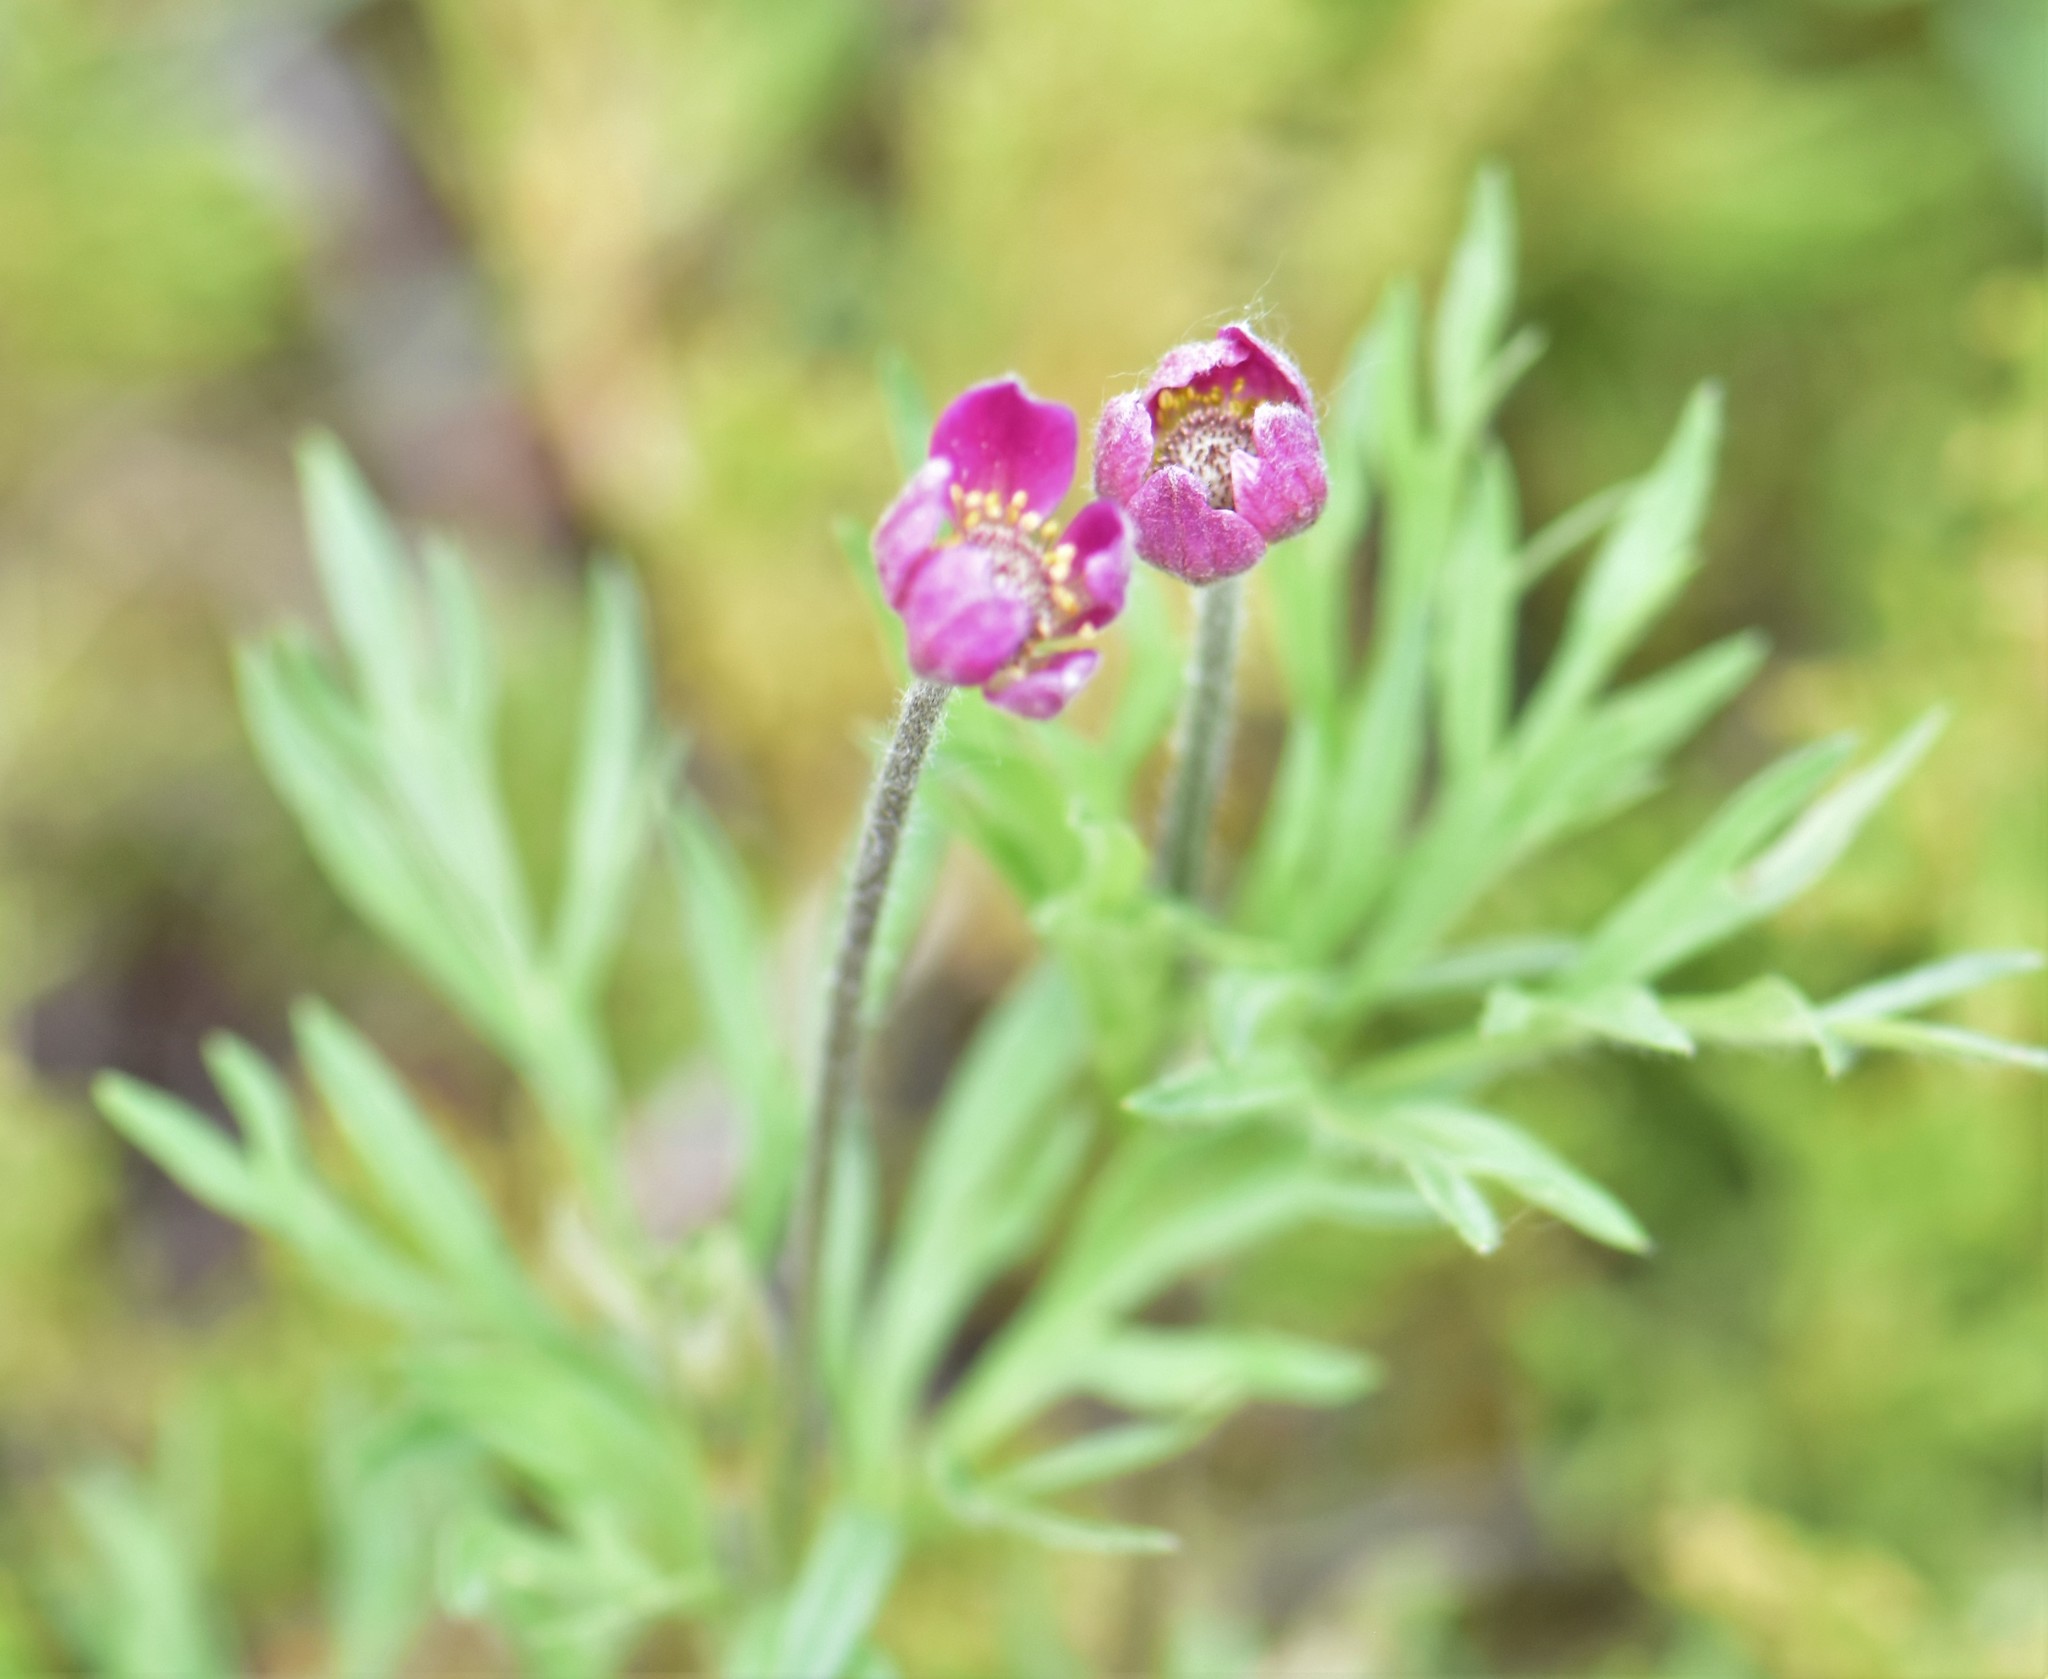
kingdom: Plantae
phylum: Tracheophyta
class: Magnoliopsida
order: Ranunculales
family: Ranunculaceae
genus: Anemone
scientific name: Anemone multifida
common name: Bird's-foot anemone
